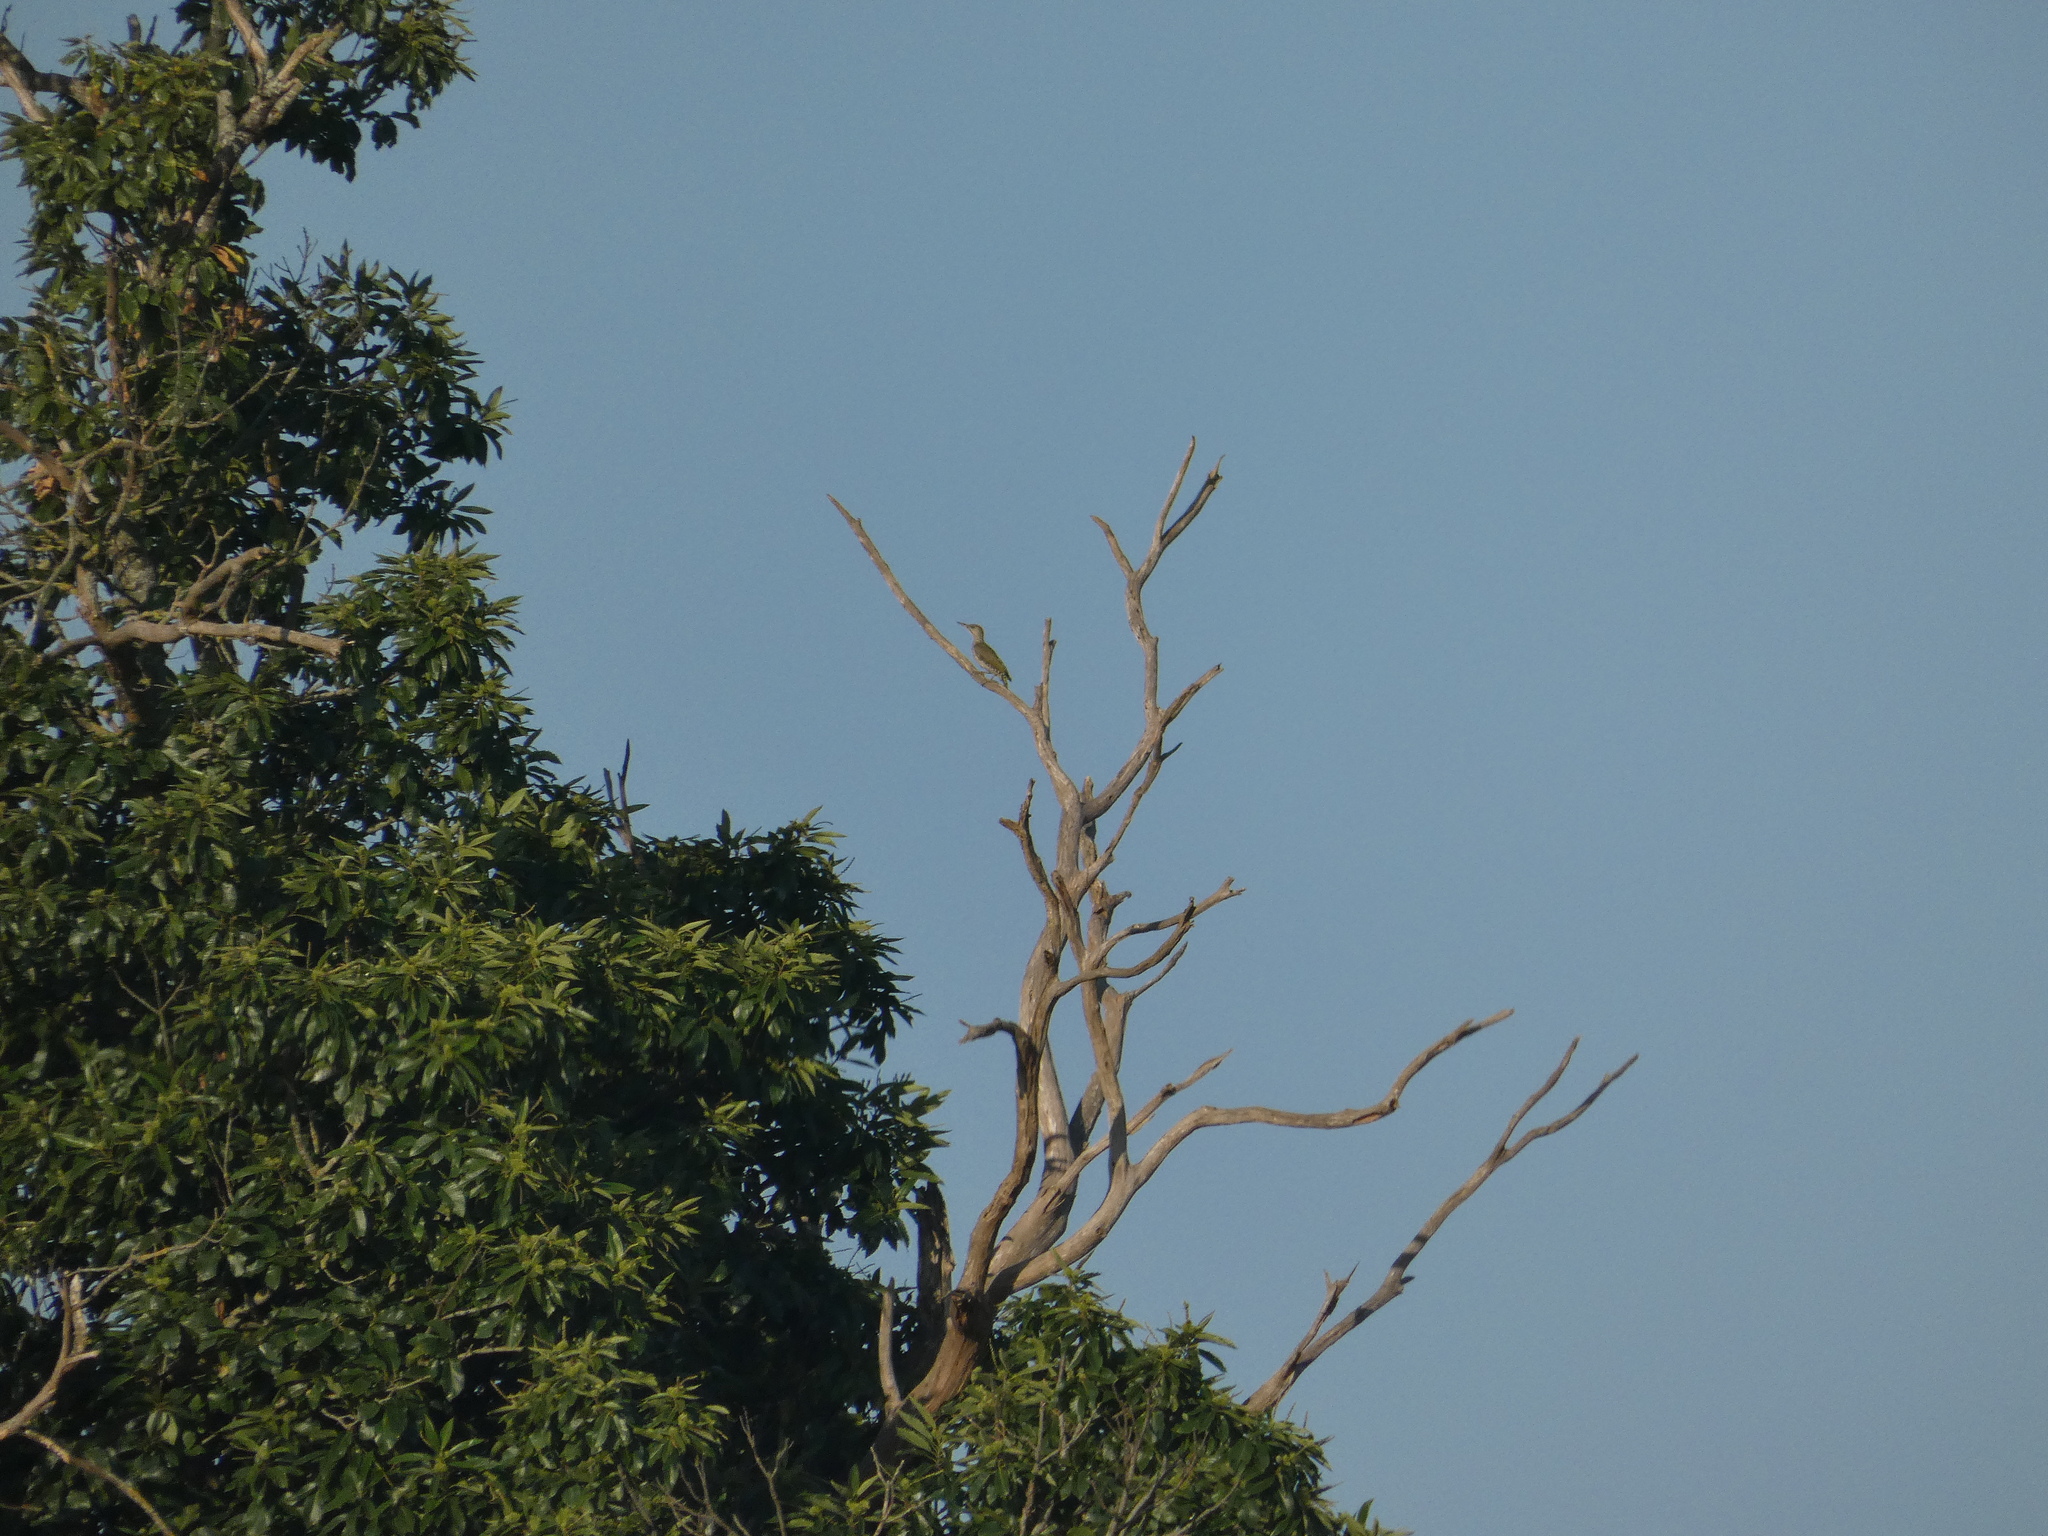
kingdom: Animalia
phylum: Chordata
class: Aves
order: Piciformes
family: Picidae
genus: Picus
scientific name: Picus viridis
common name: European green woodpecker
